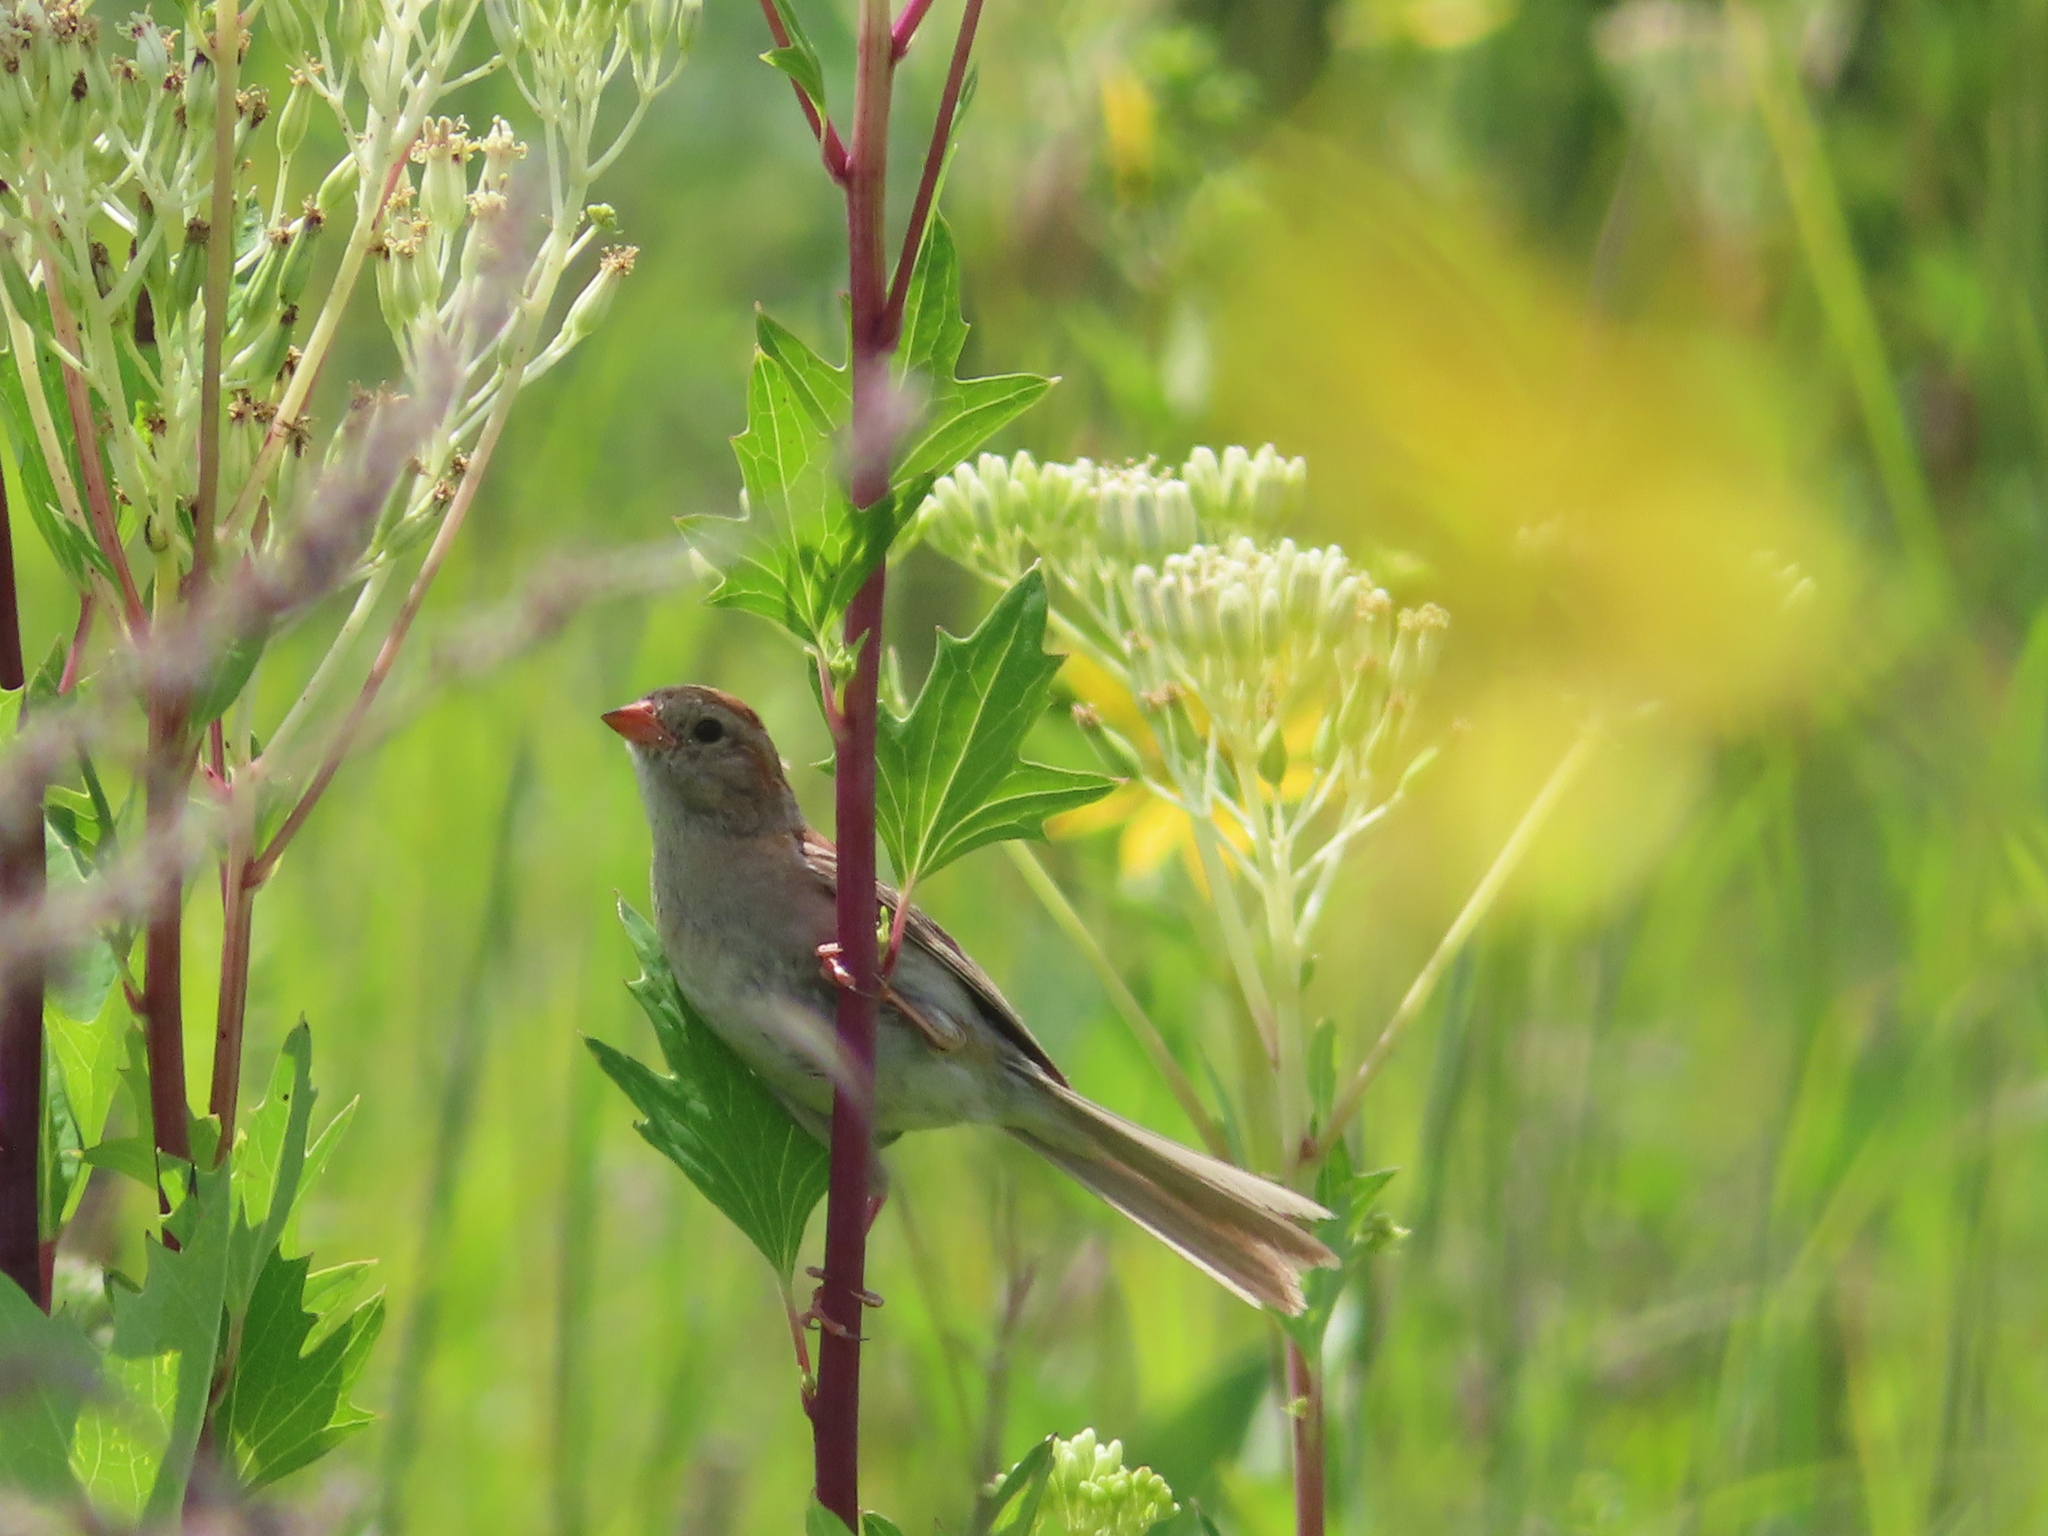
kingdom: Animalia
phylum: Chordata
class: Aves
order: Passeriformes
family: Passerellidae
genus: Spizella
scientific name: Spizella pusilla
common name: Field sparrow
